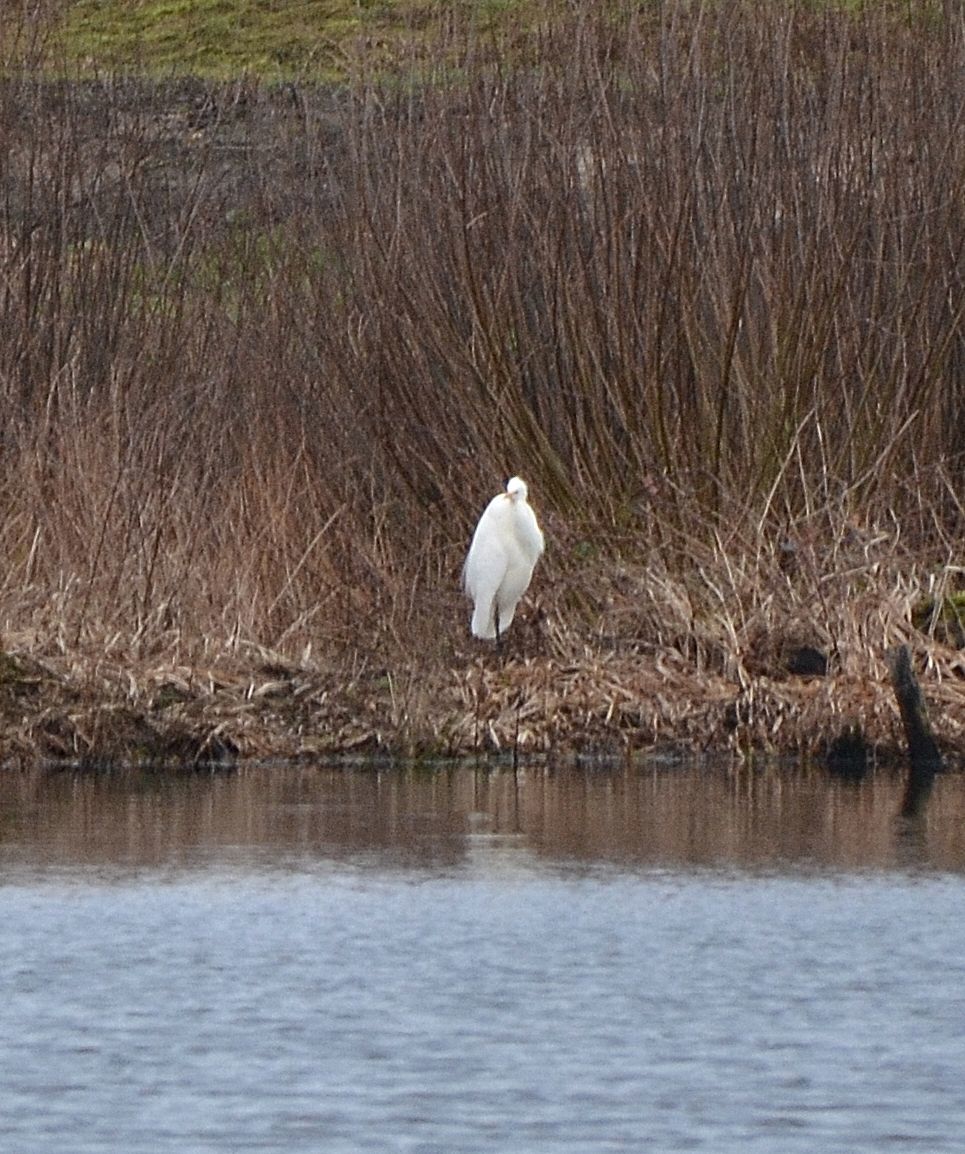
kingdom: Animalia
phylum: Chordata
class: Aves
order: Pelecaniformes
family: Ardeidae
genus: Ardea
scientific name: Ardea alba
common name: Great egret
